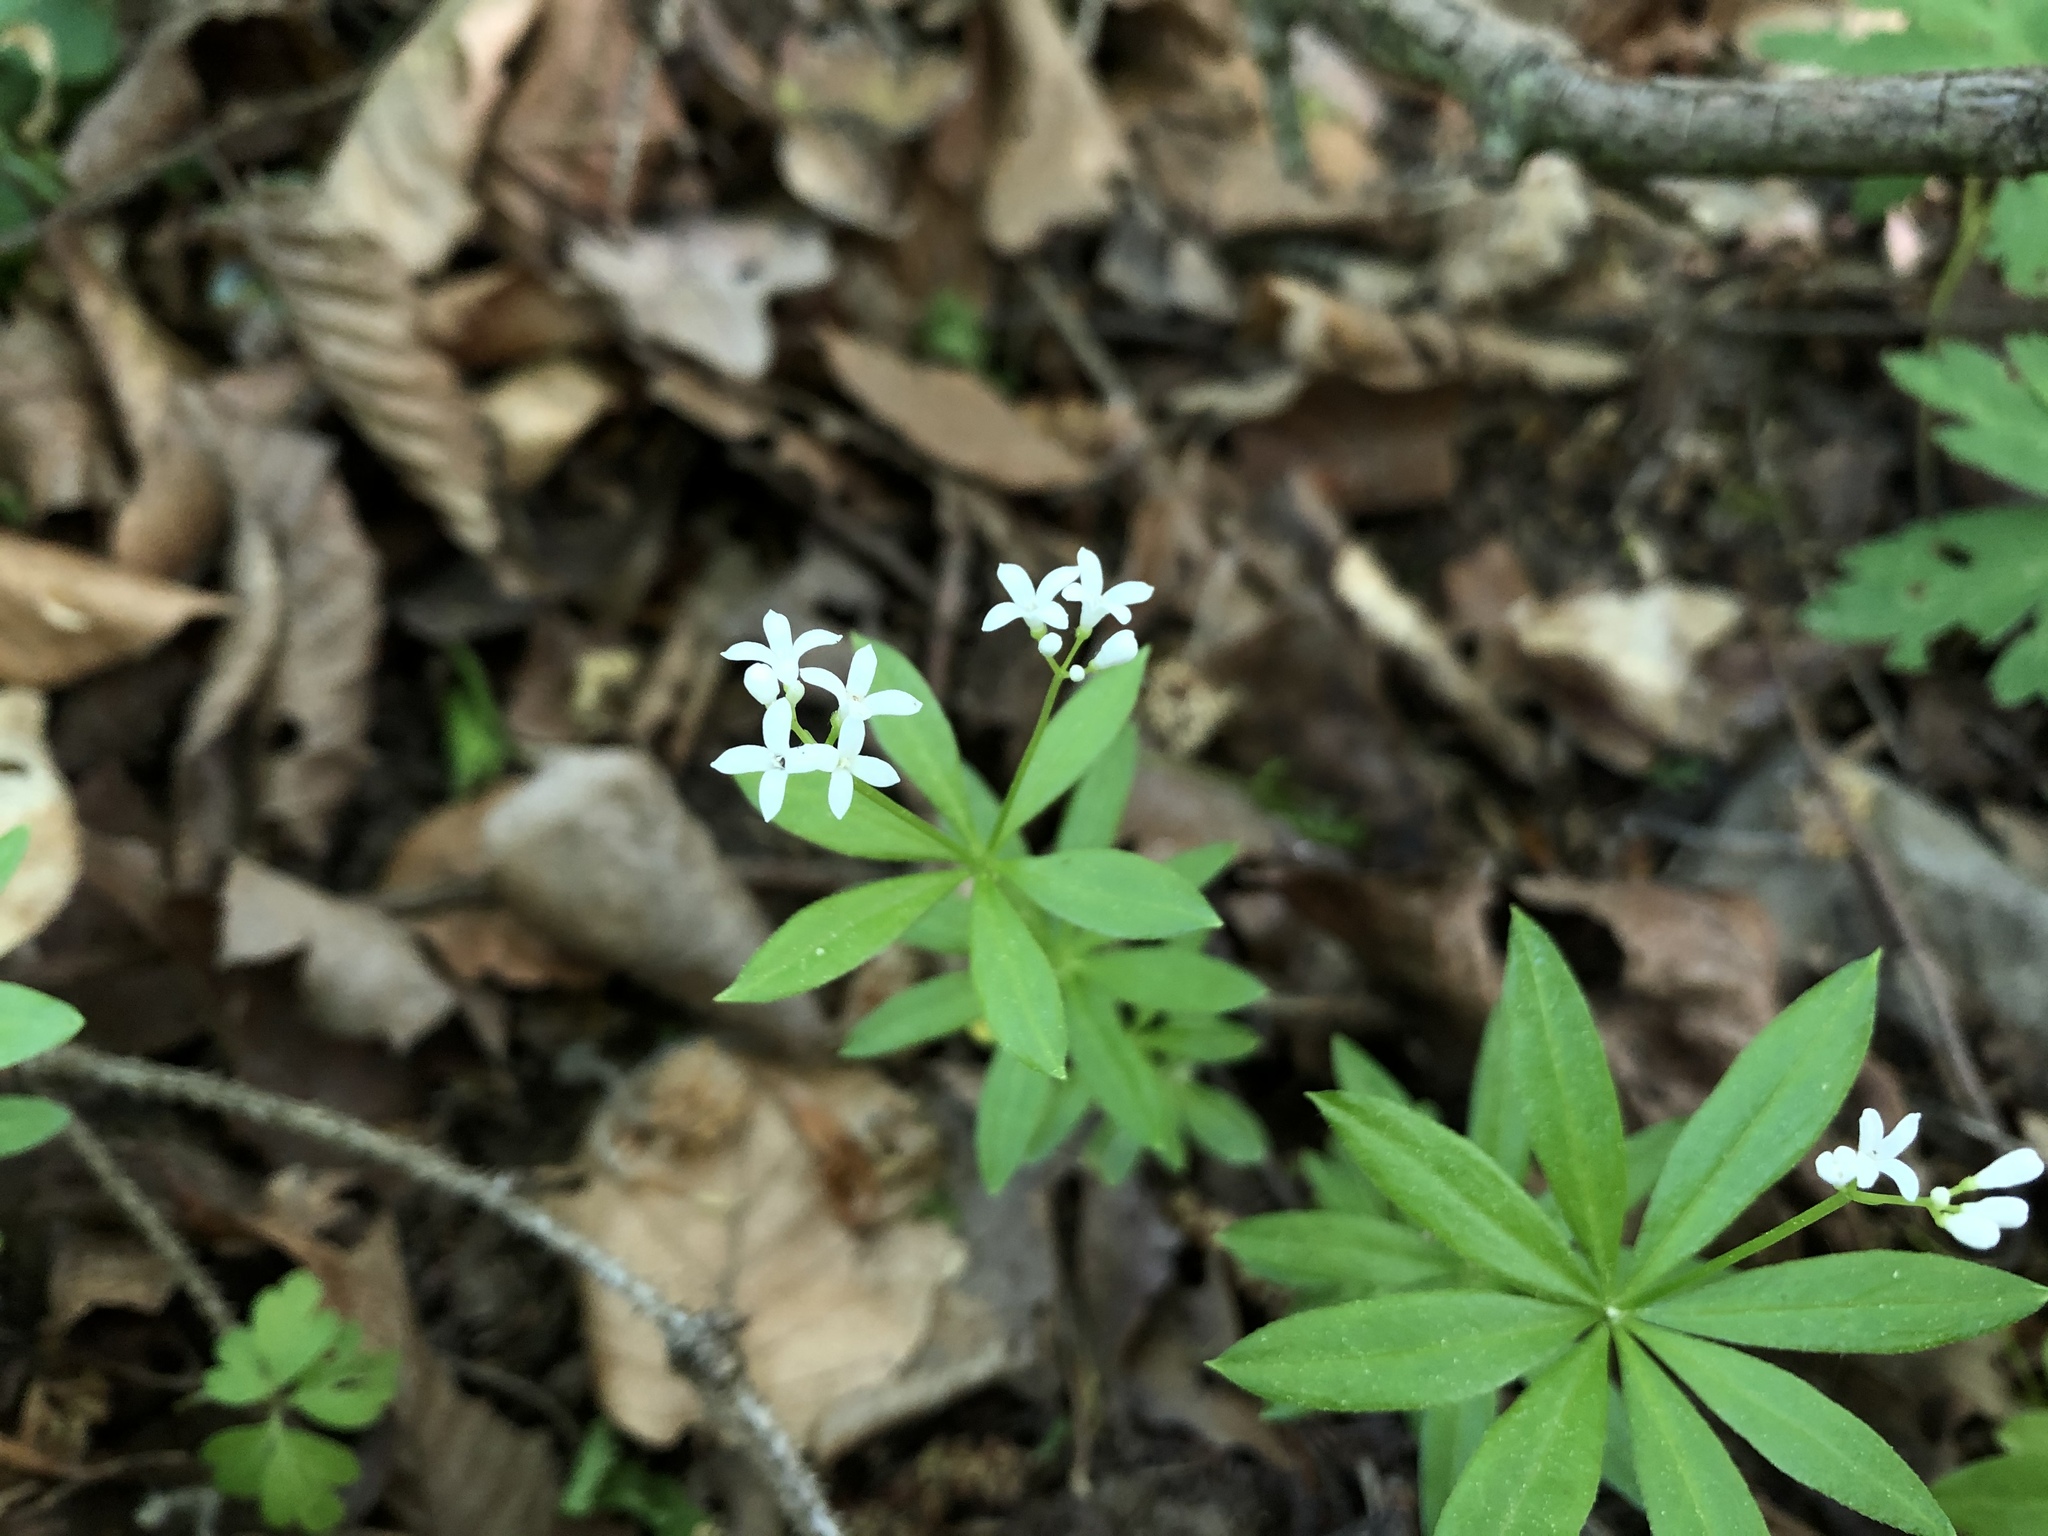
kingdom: Plantae
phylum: Tracheophyta
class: Magnoliopsida
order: Gentianales
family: Rubiaceae
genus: Galium
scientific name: Galium odoratum
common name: Sweet woodruff
